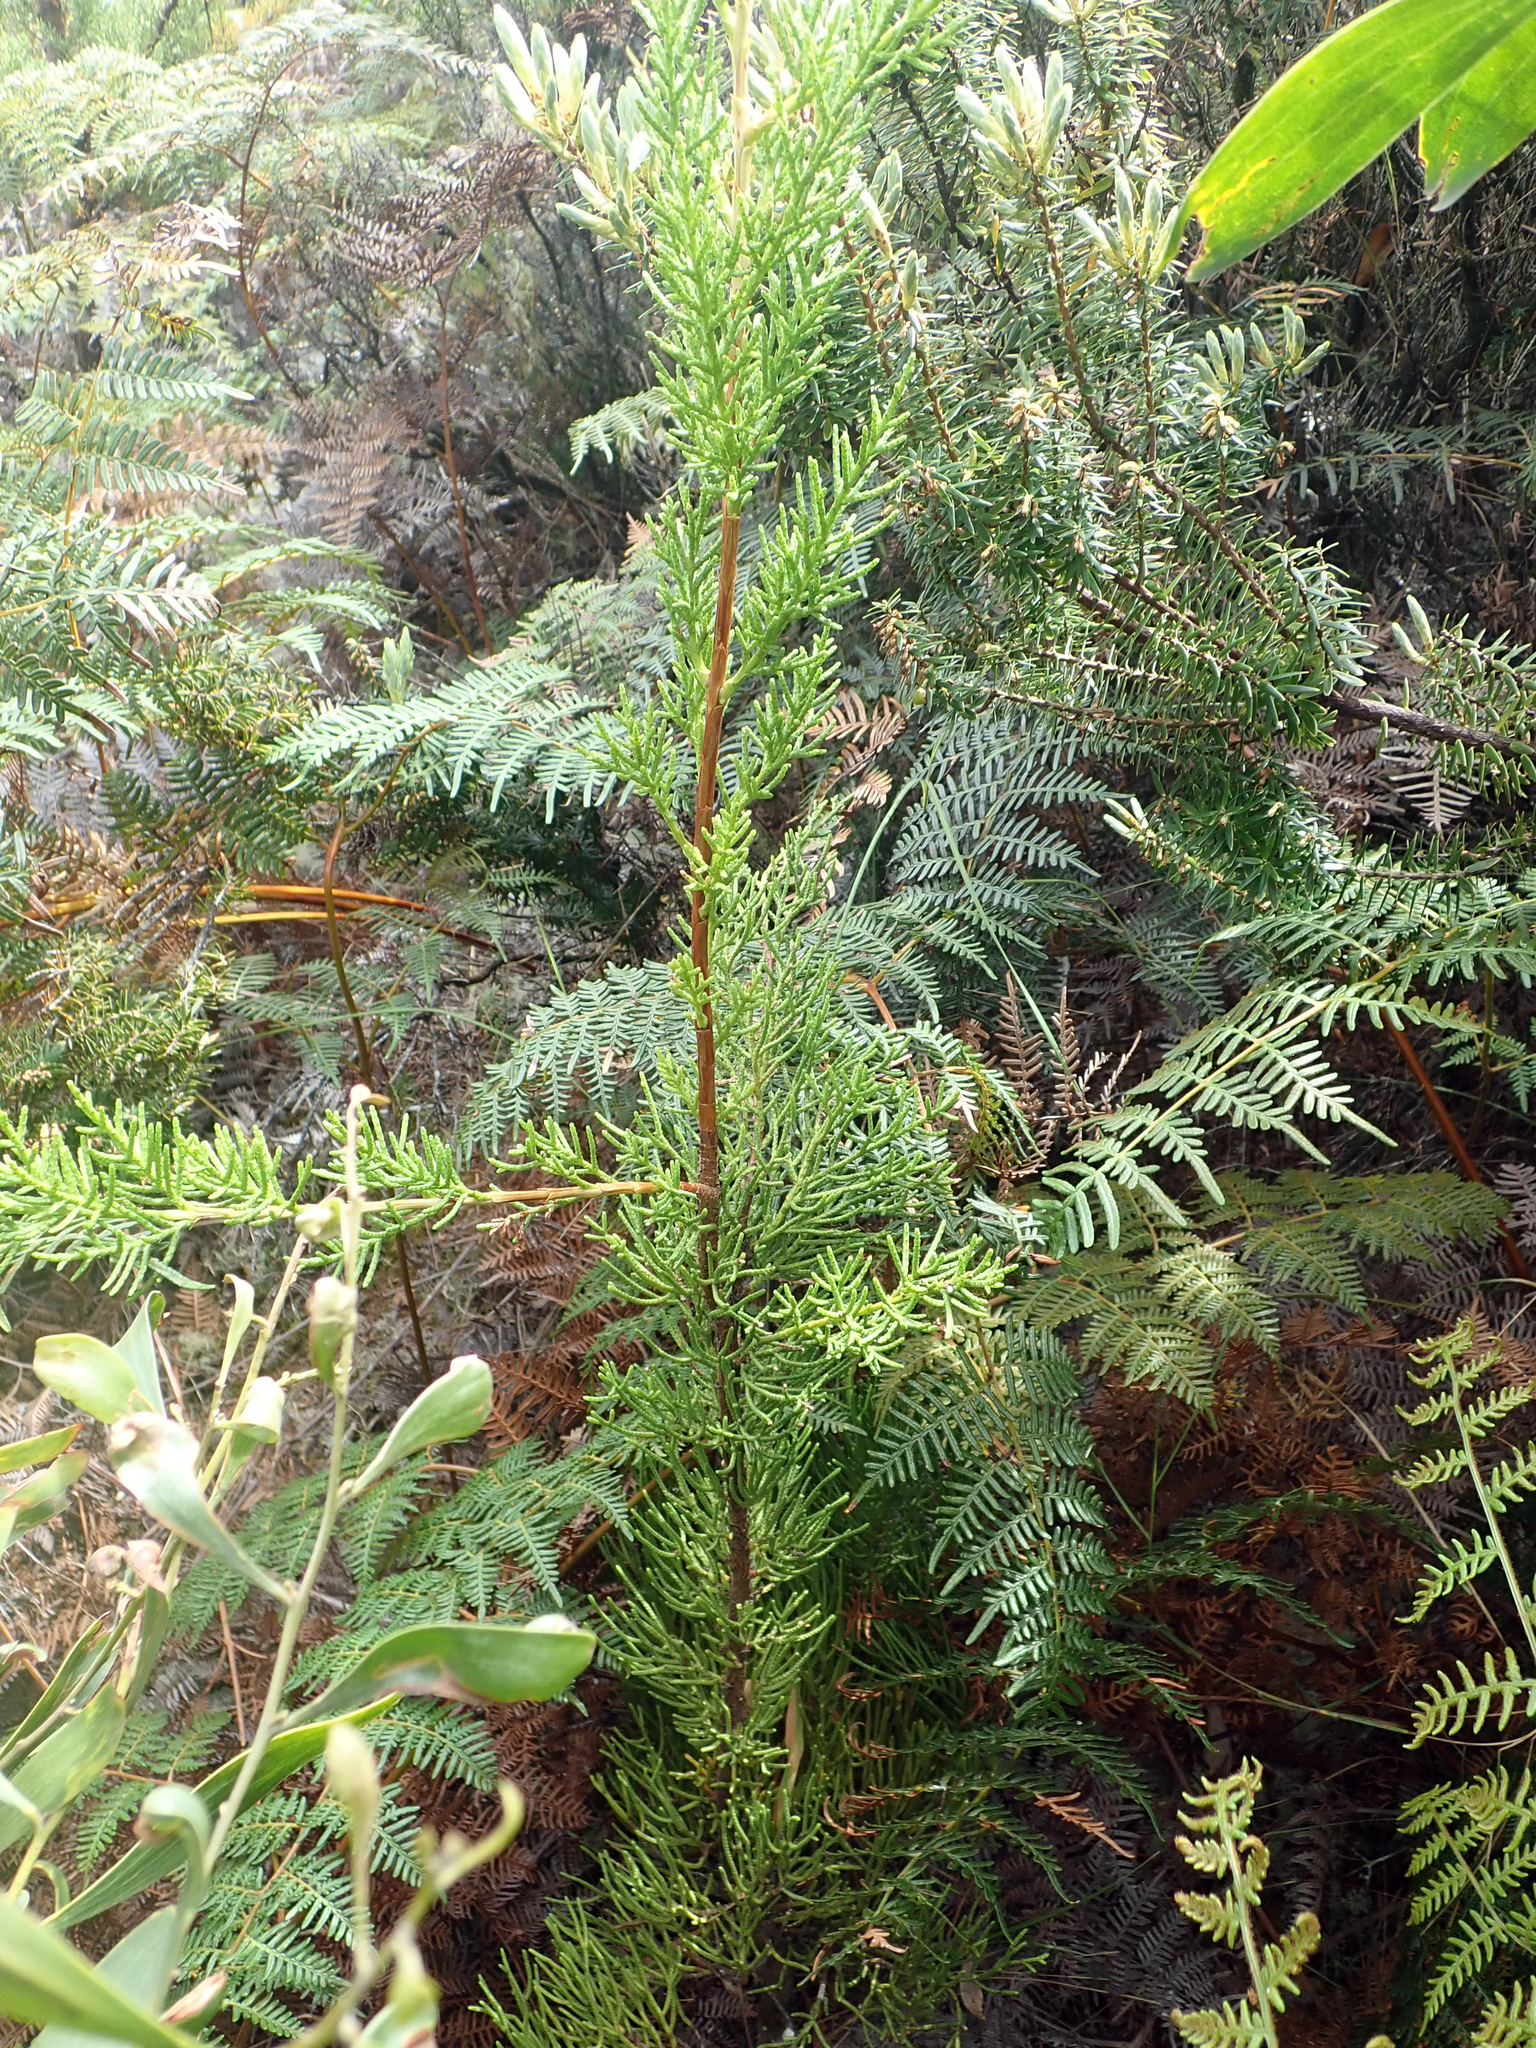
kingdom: Plantae
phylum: Tracheophyta
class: Pinopsida
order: Pinales
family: Cupressaceae
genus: Cupressus
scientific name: Cupressus macrocarpa
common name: Monterey cypress
